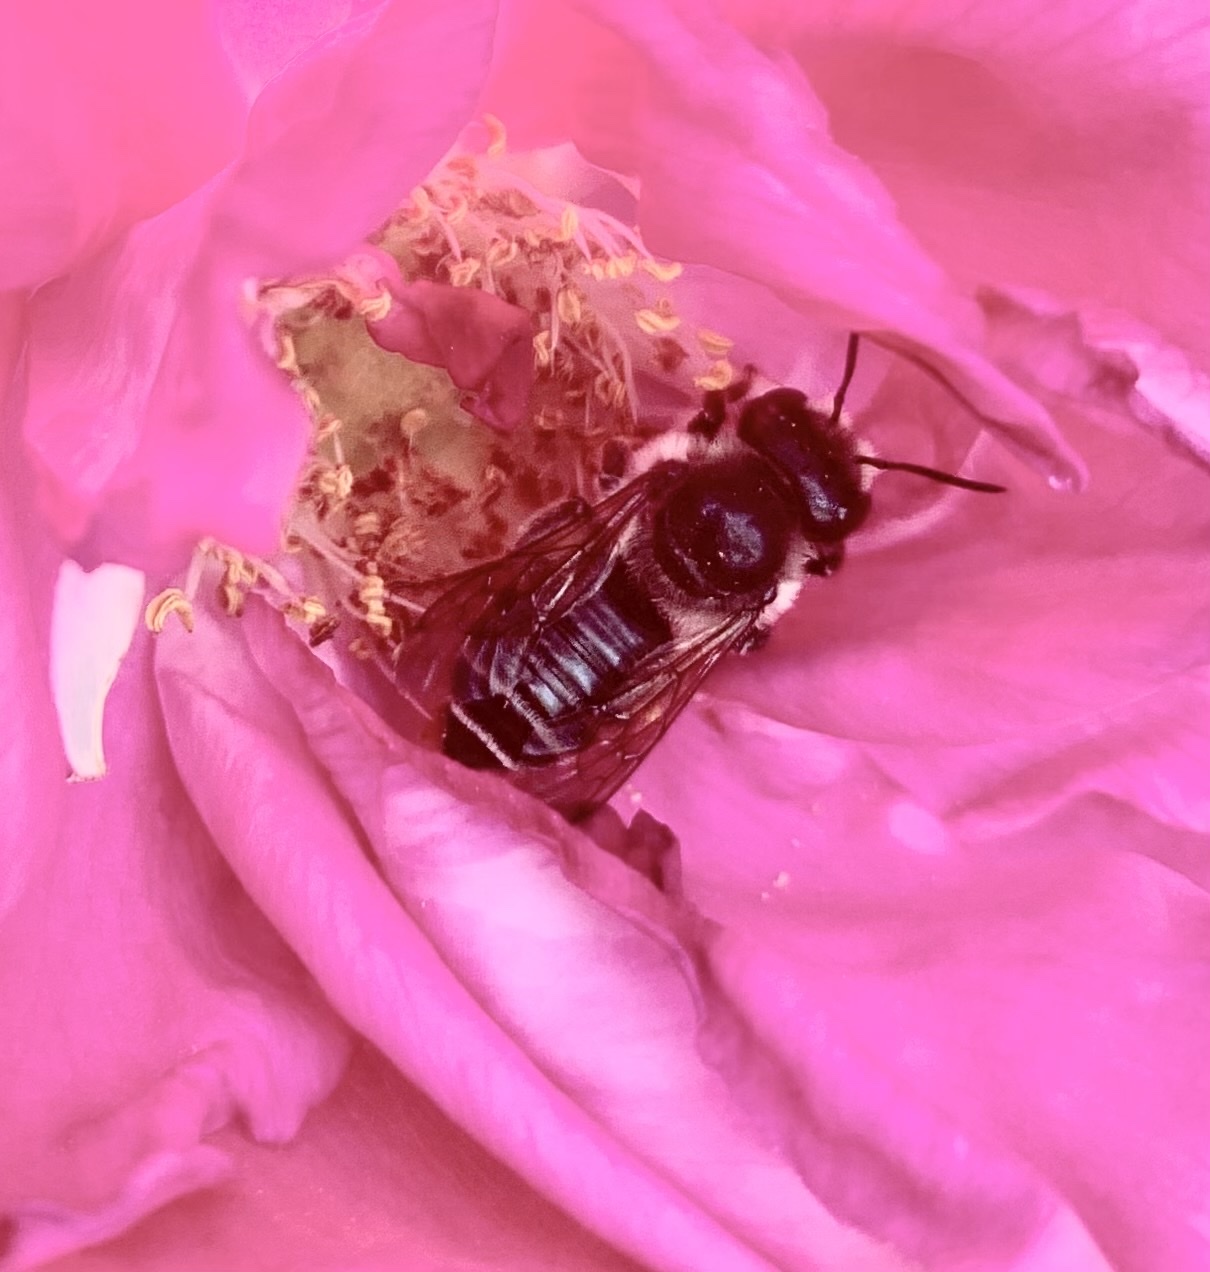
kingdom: Animalia
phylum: Arthropoda
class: Insecta
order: Hymenoptera
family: Megachilidae
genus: Megachile
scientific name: Megachile
